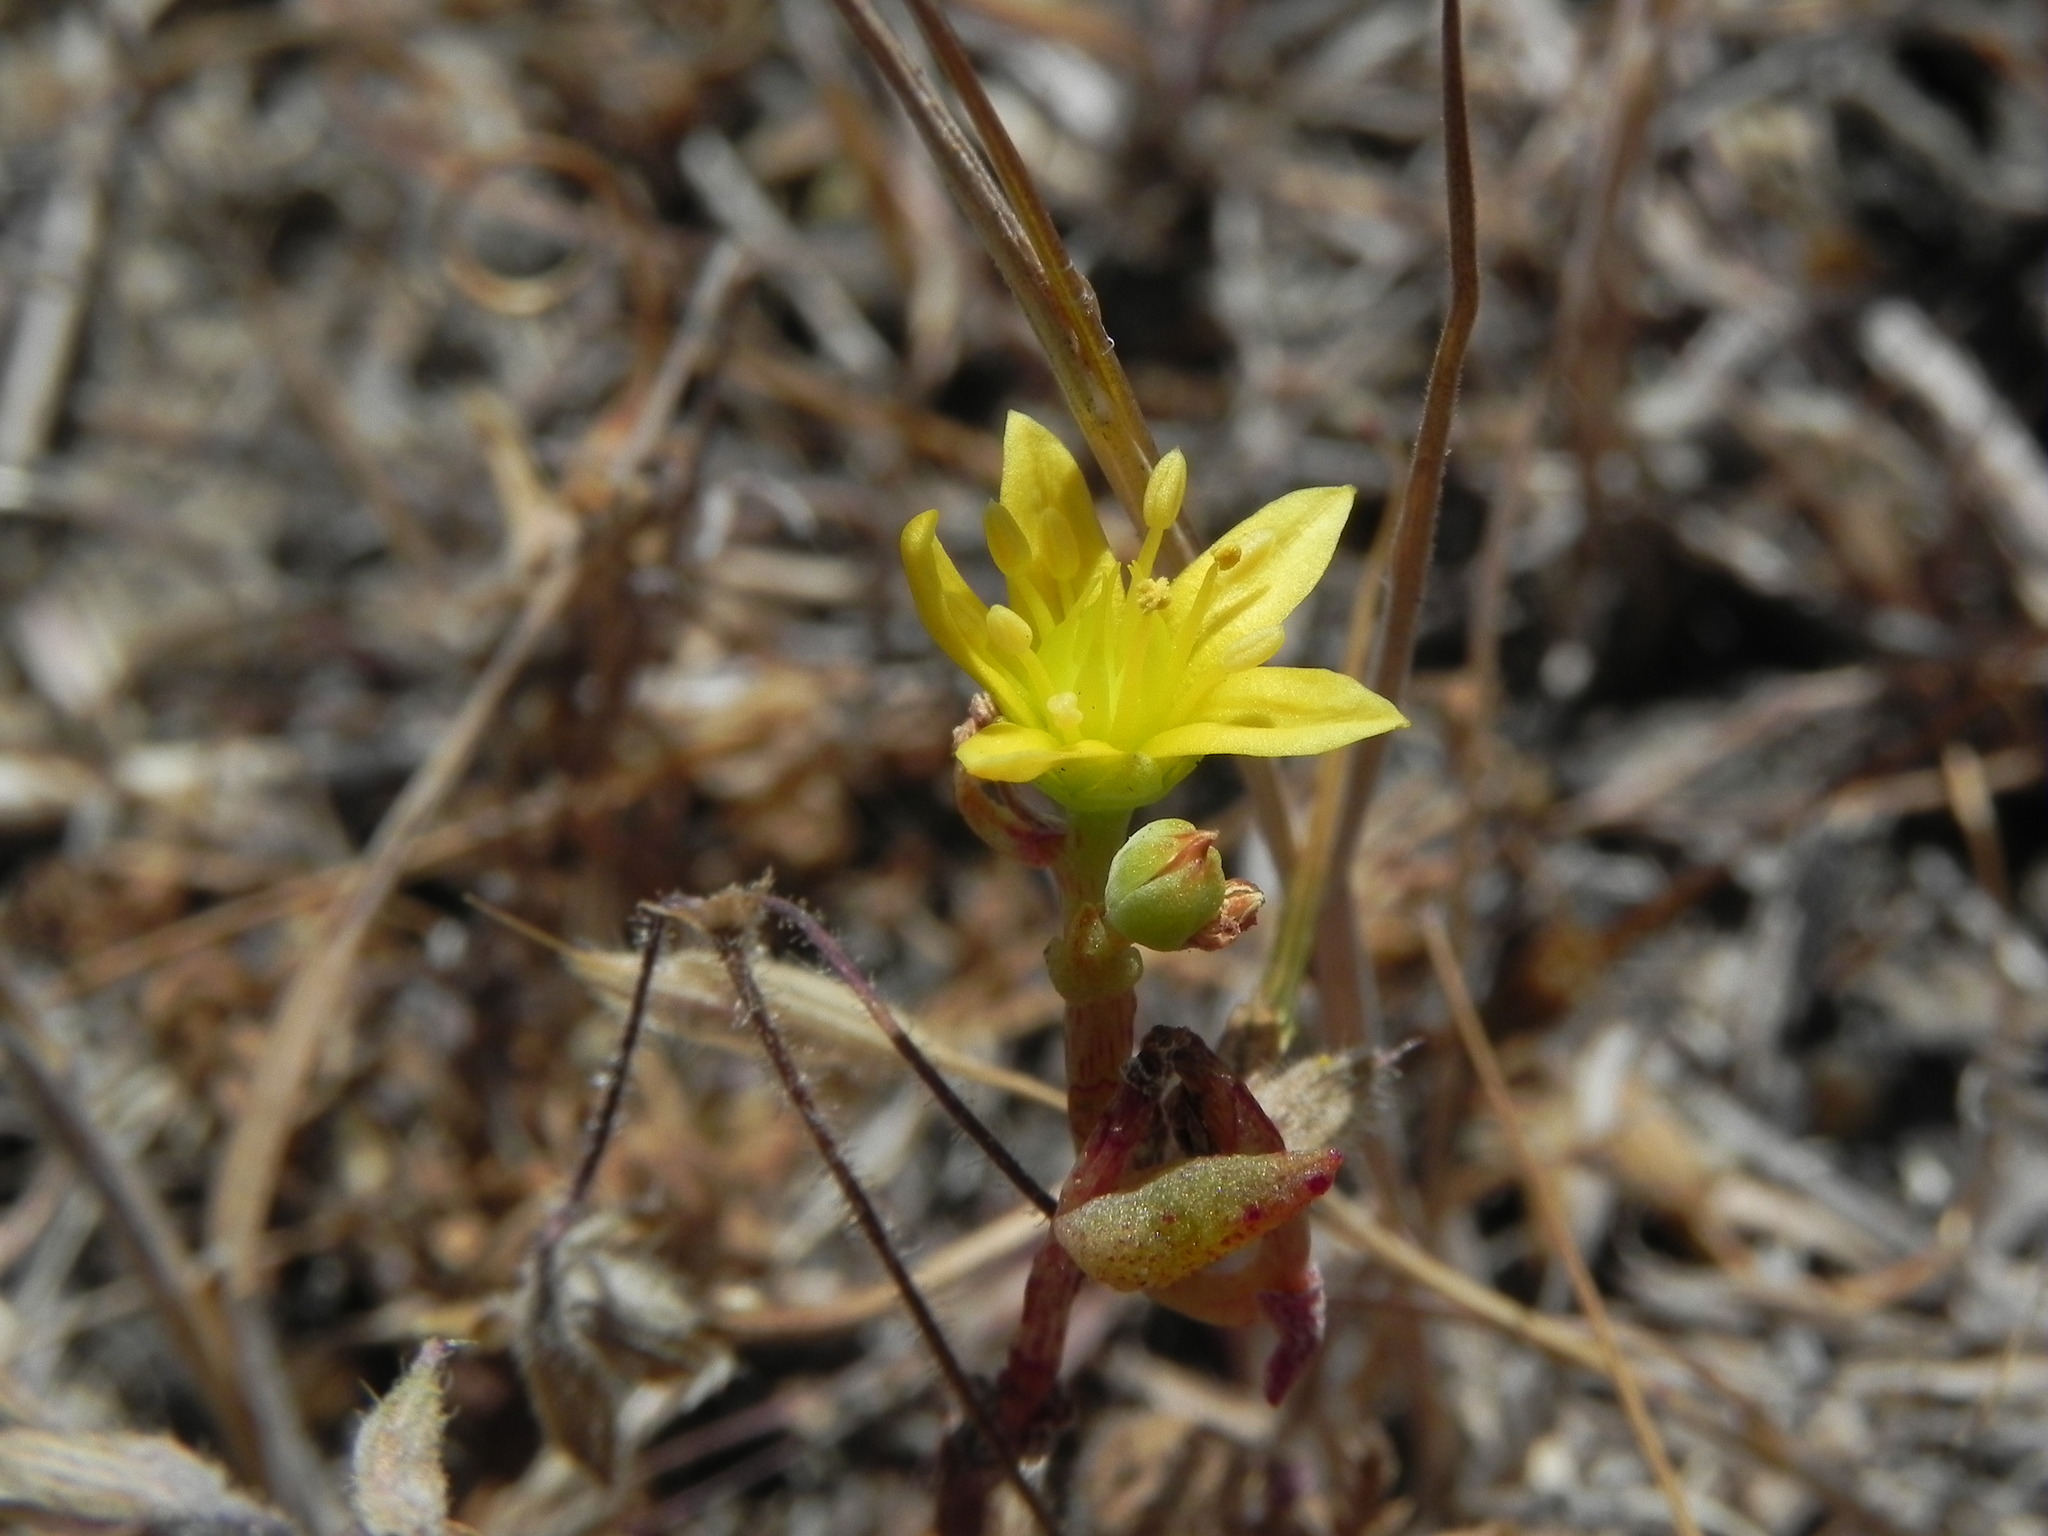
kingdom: Plantae
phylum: Tracheophyta
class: Magnoliopsida
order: Saxifragales
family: Crassulaceae
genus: Dudleya
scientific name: Dudleya variegata
